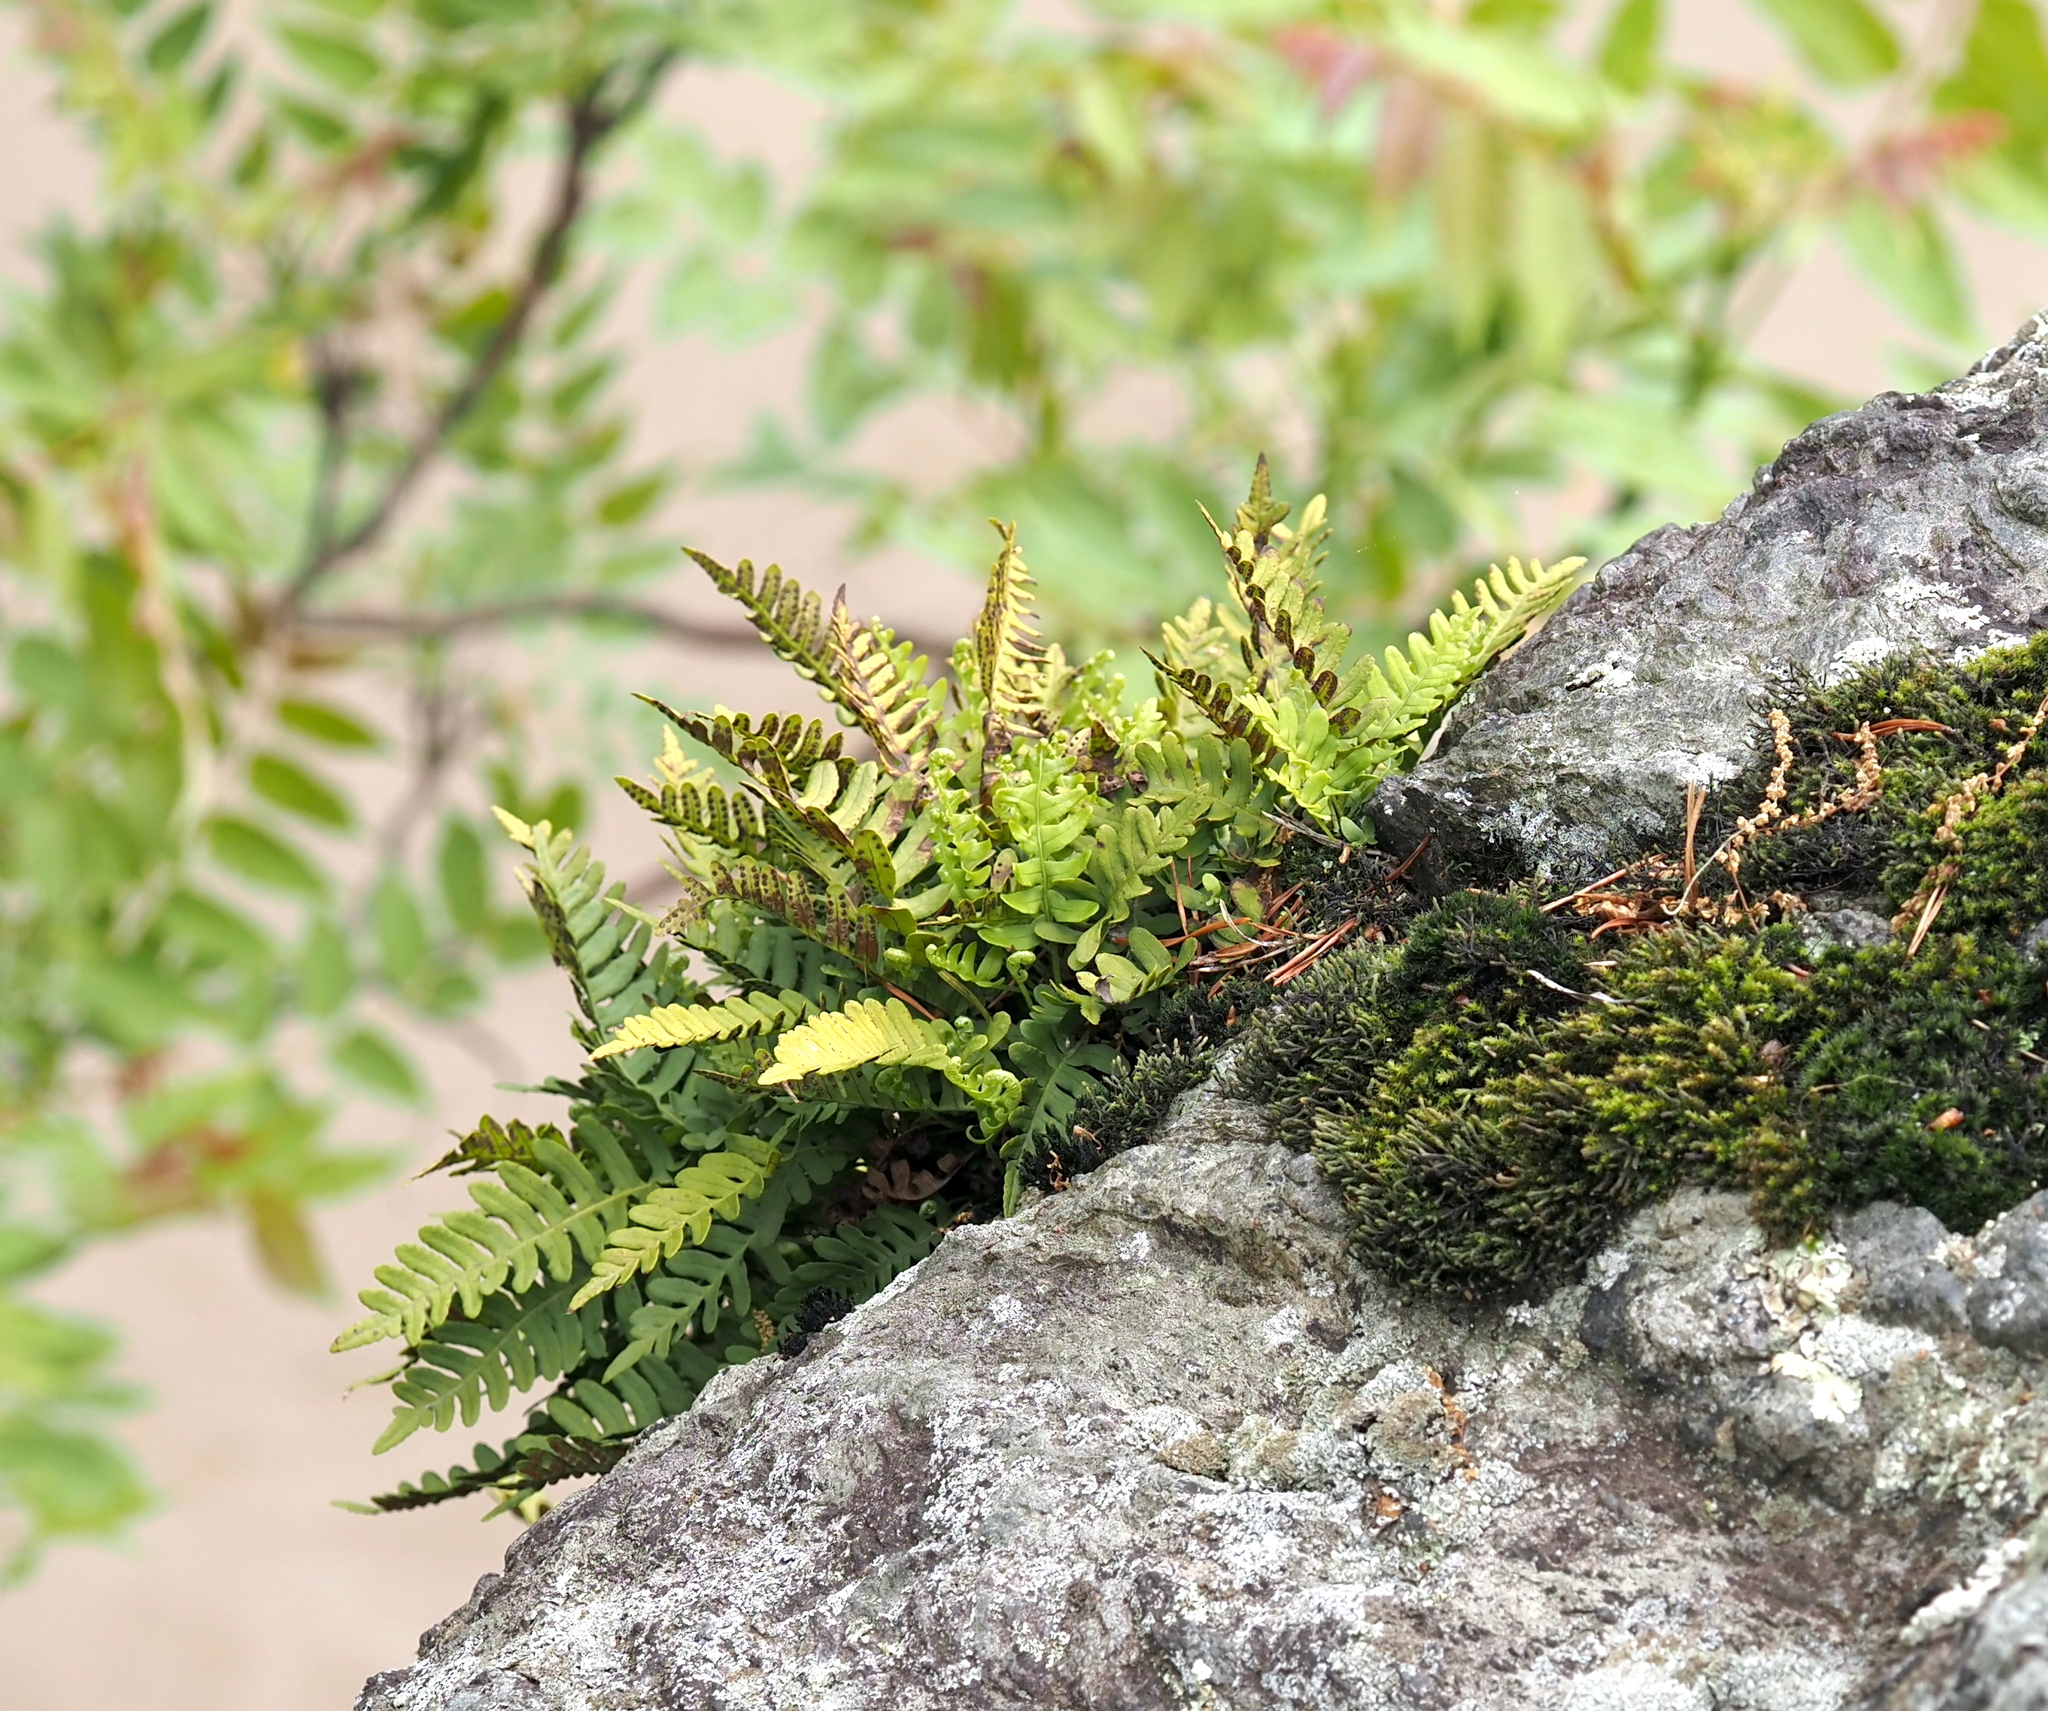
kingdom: Plantae
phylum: Tracheophyta
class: Polypodiopsida
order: Polypodiales
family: Polypodiaceae
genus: Polypodium
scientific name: Polypodium virginianum
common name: American wall fern
